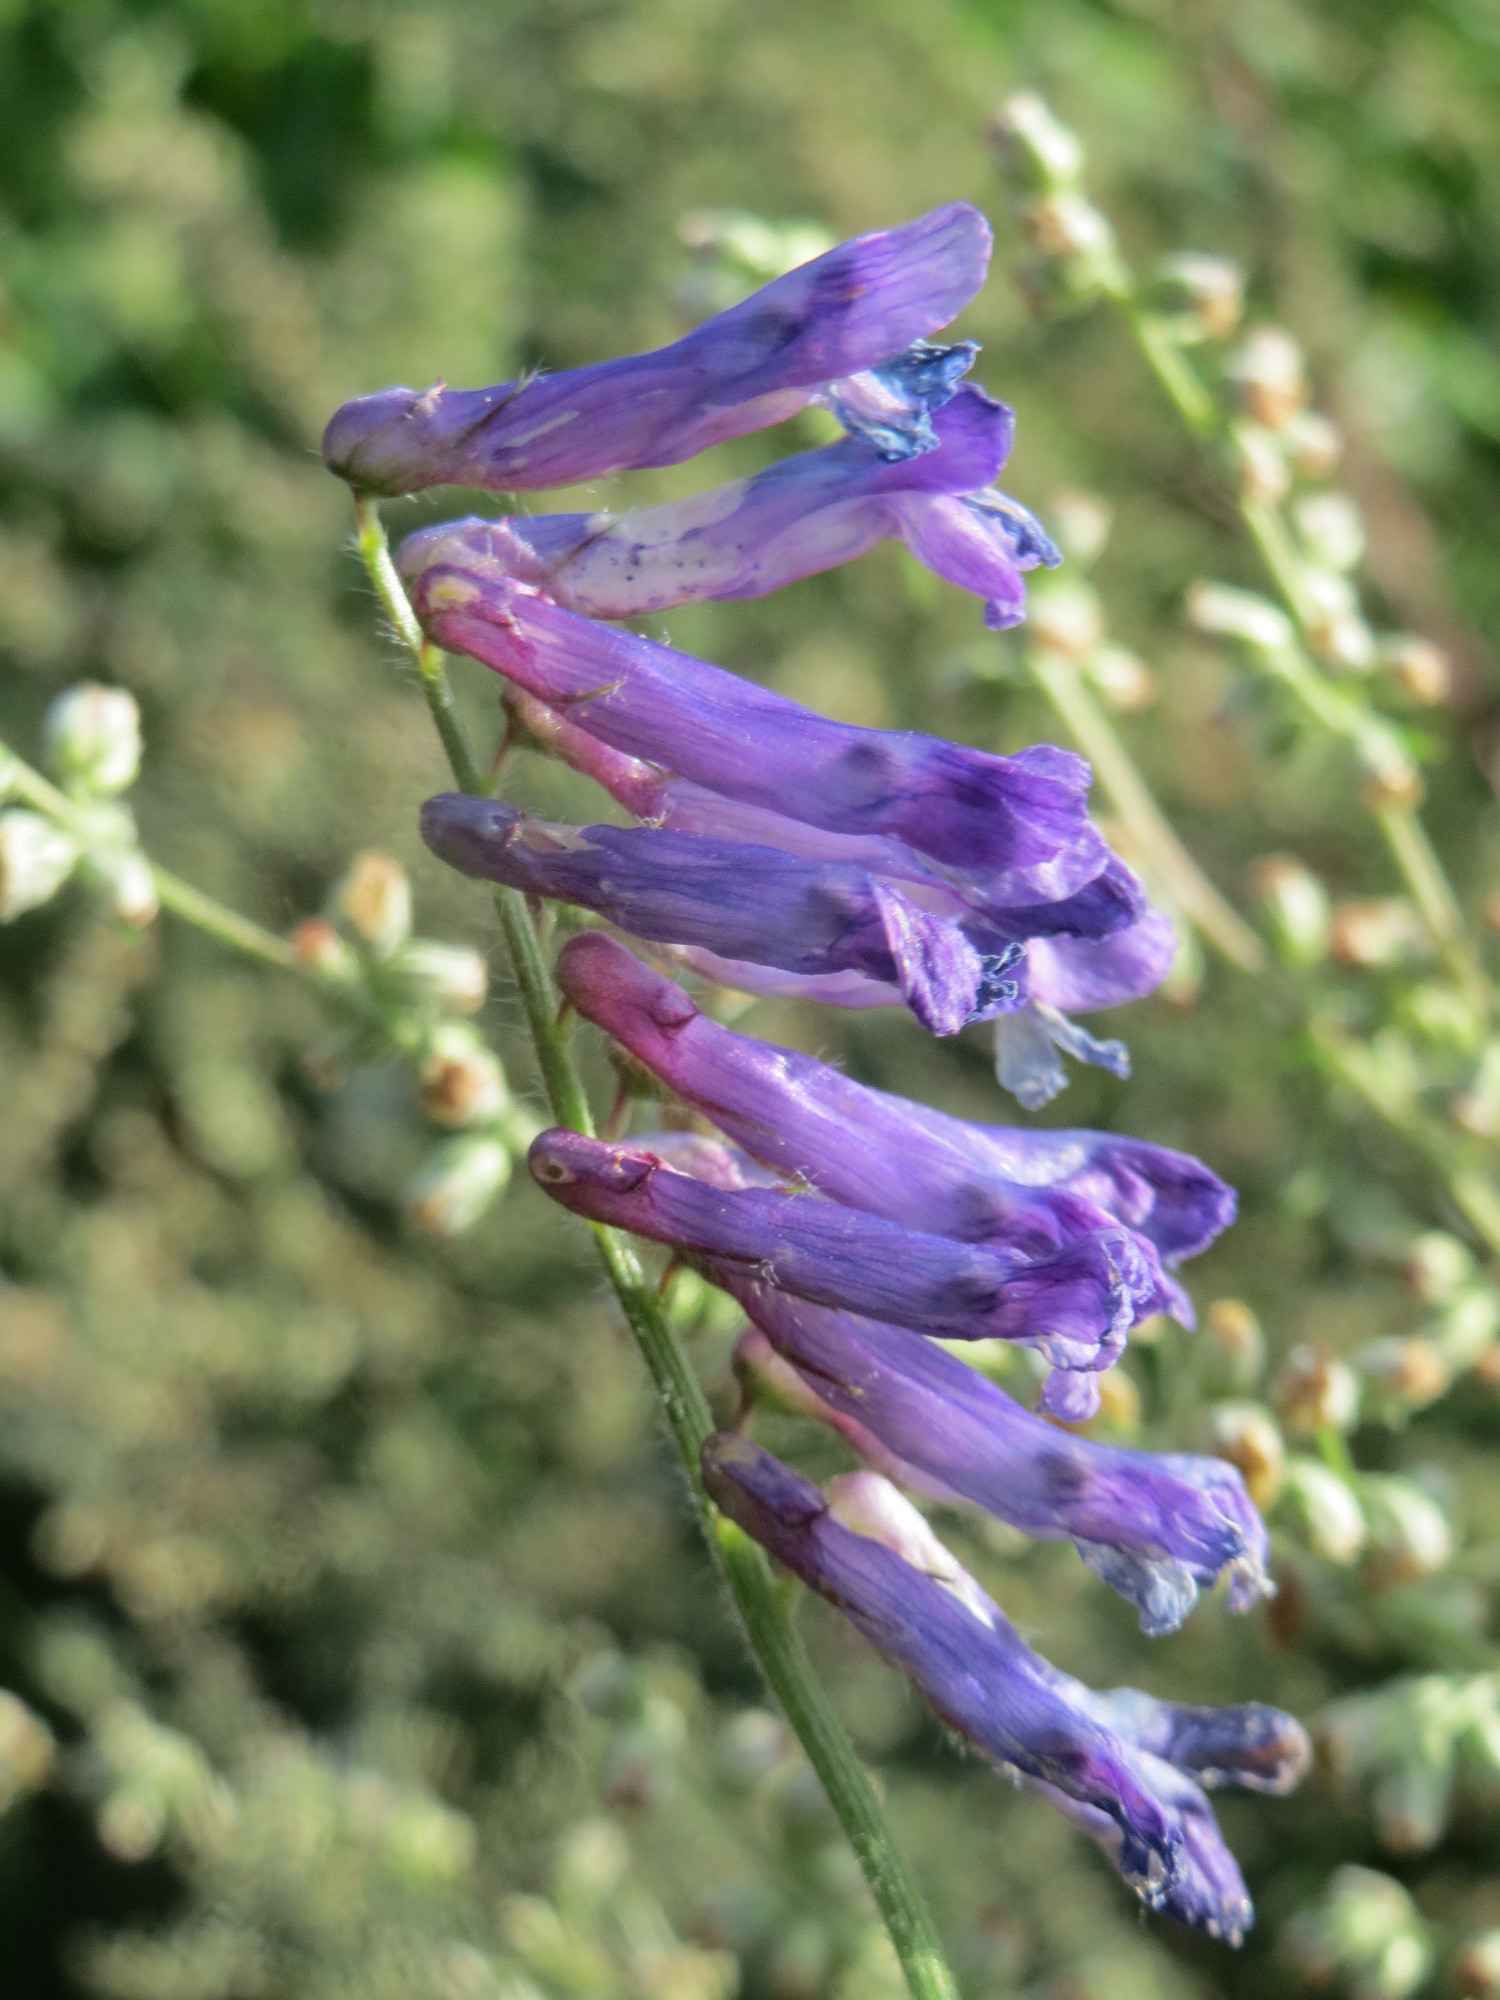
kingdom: Plantae
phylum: Tracheophyta
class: Magnoliopsida
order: Fabales
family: Fabaceae
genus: Vicia
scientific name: Vicia cracca
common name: Bird vetch
